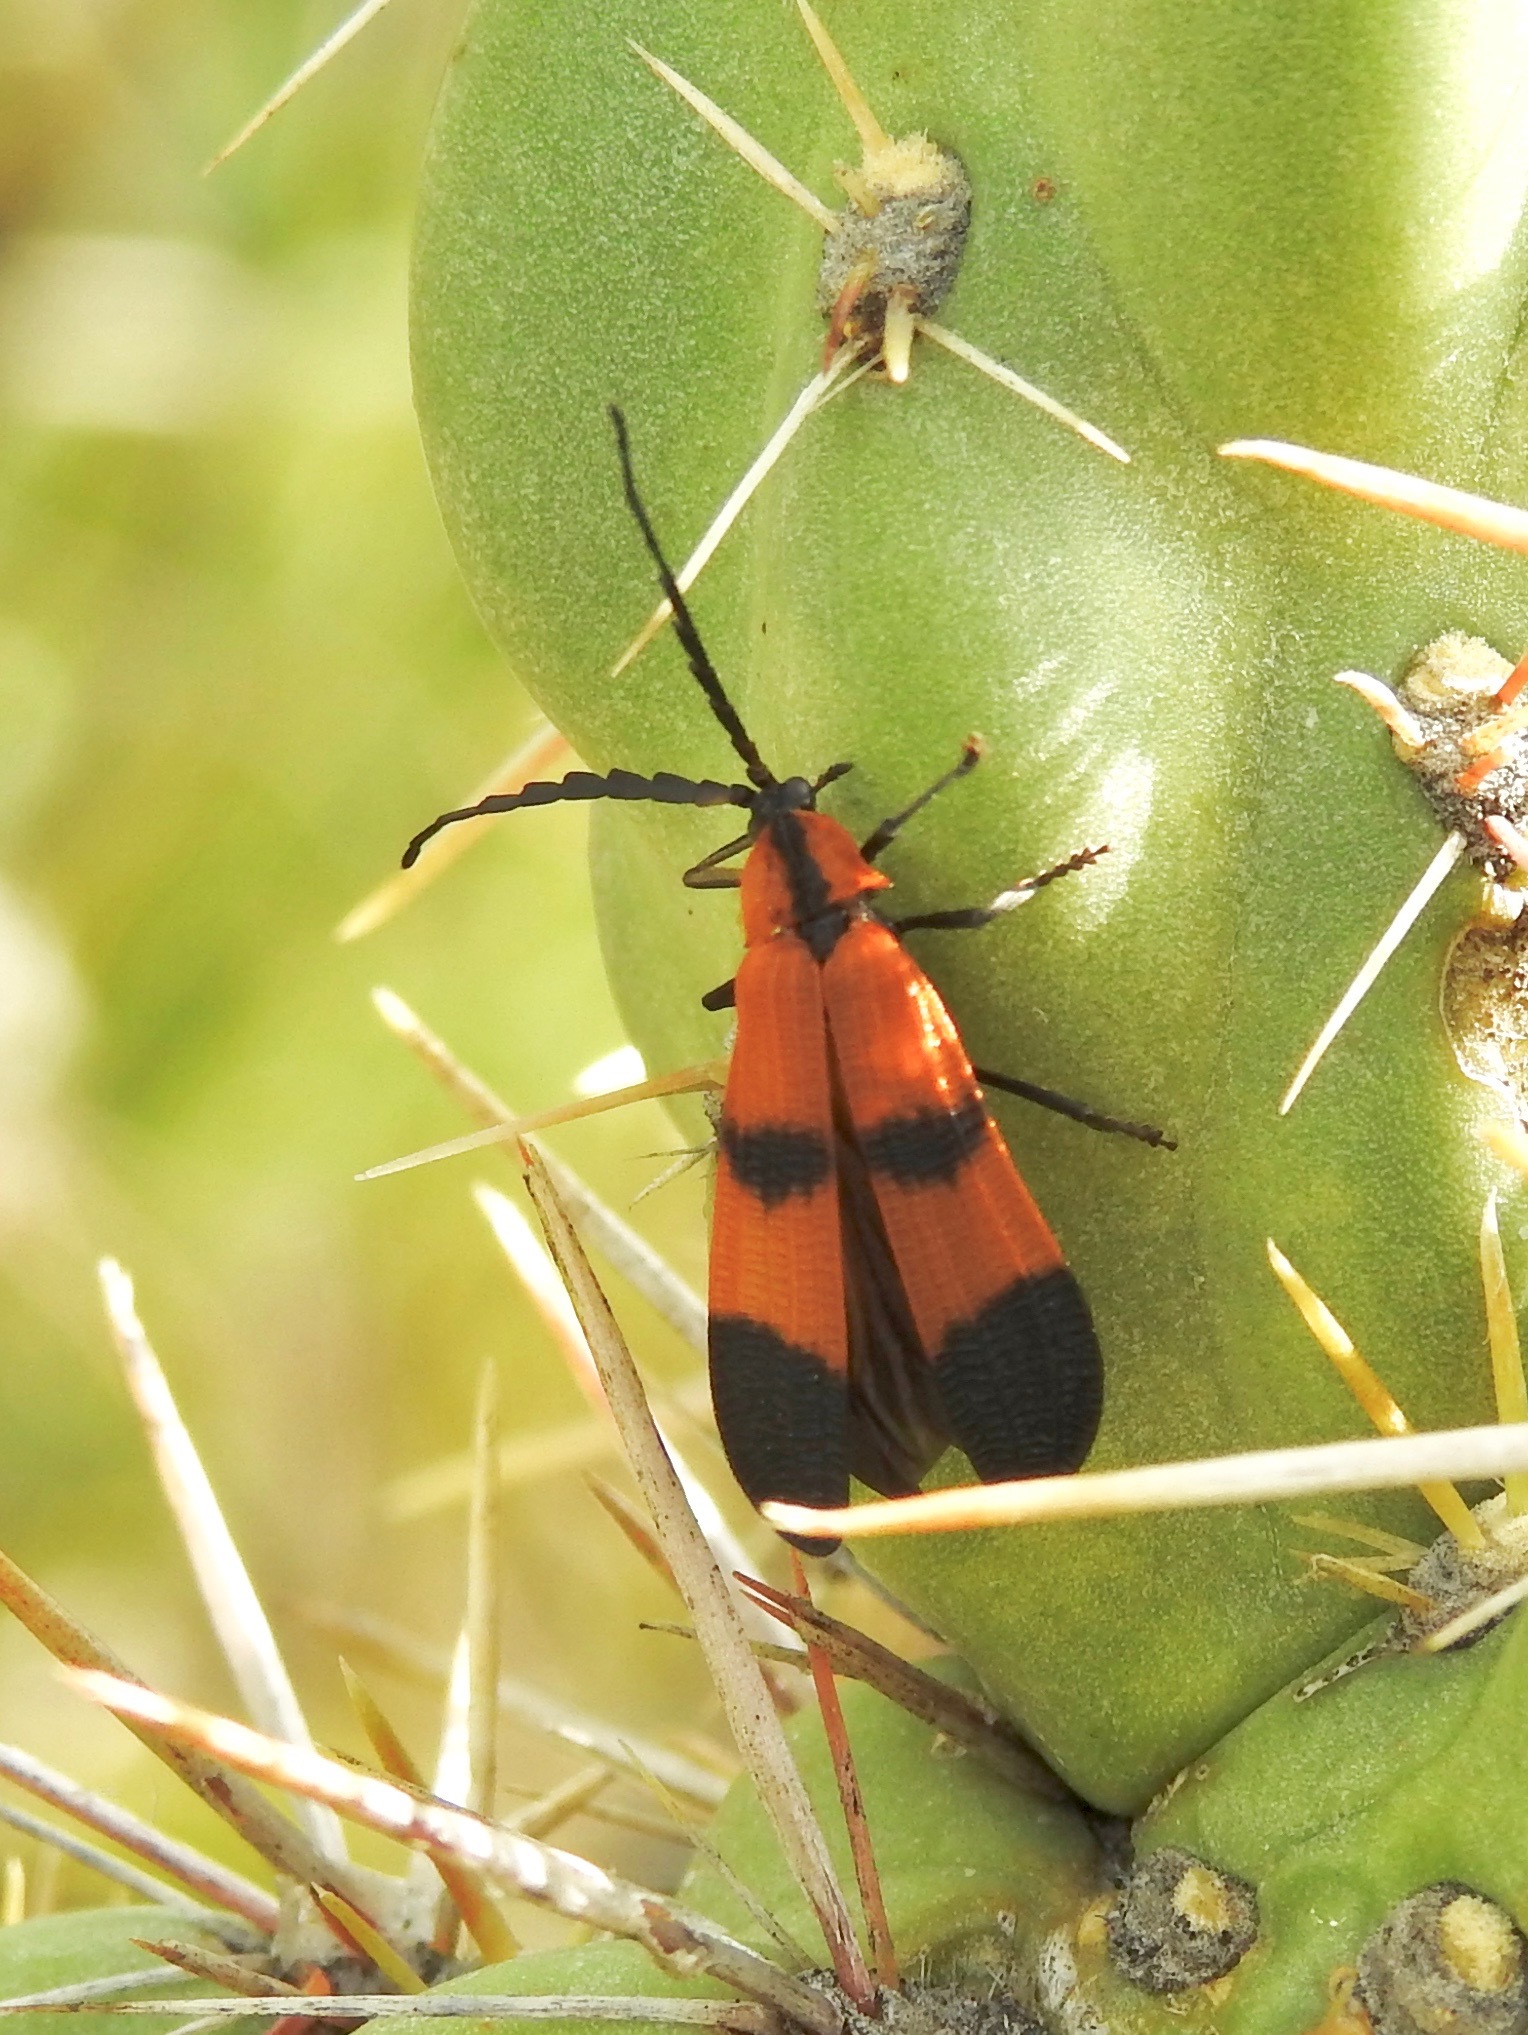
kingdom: Animalia
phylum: Arthropoda
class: Insecta
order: Coleoptera
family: Lycidae
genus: Calopteron
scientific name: Calopteron reticulatum
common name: Banded net-winged beetle
